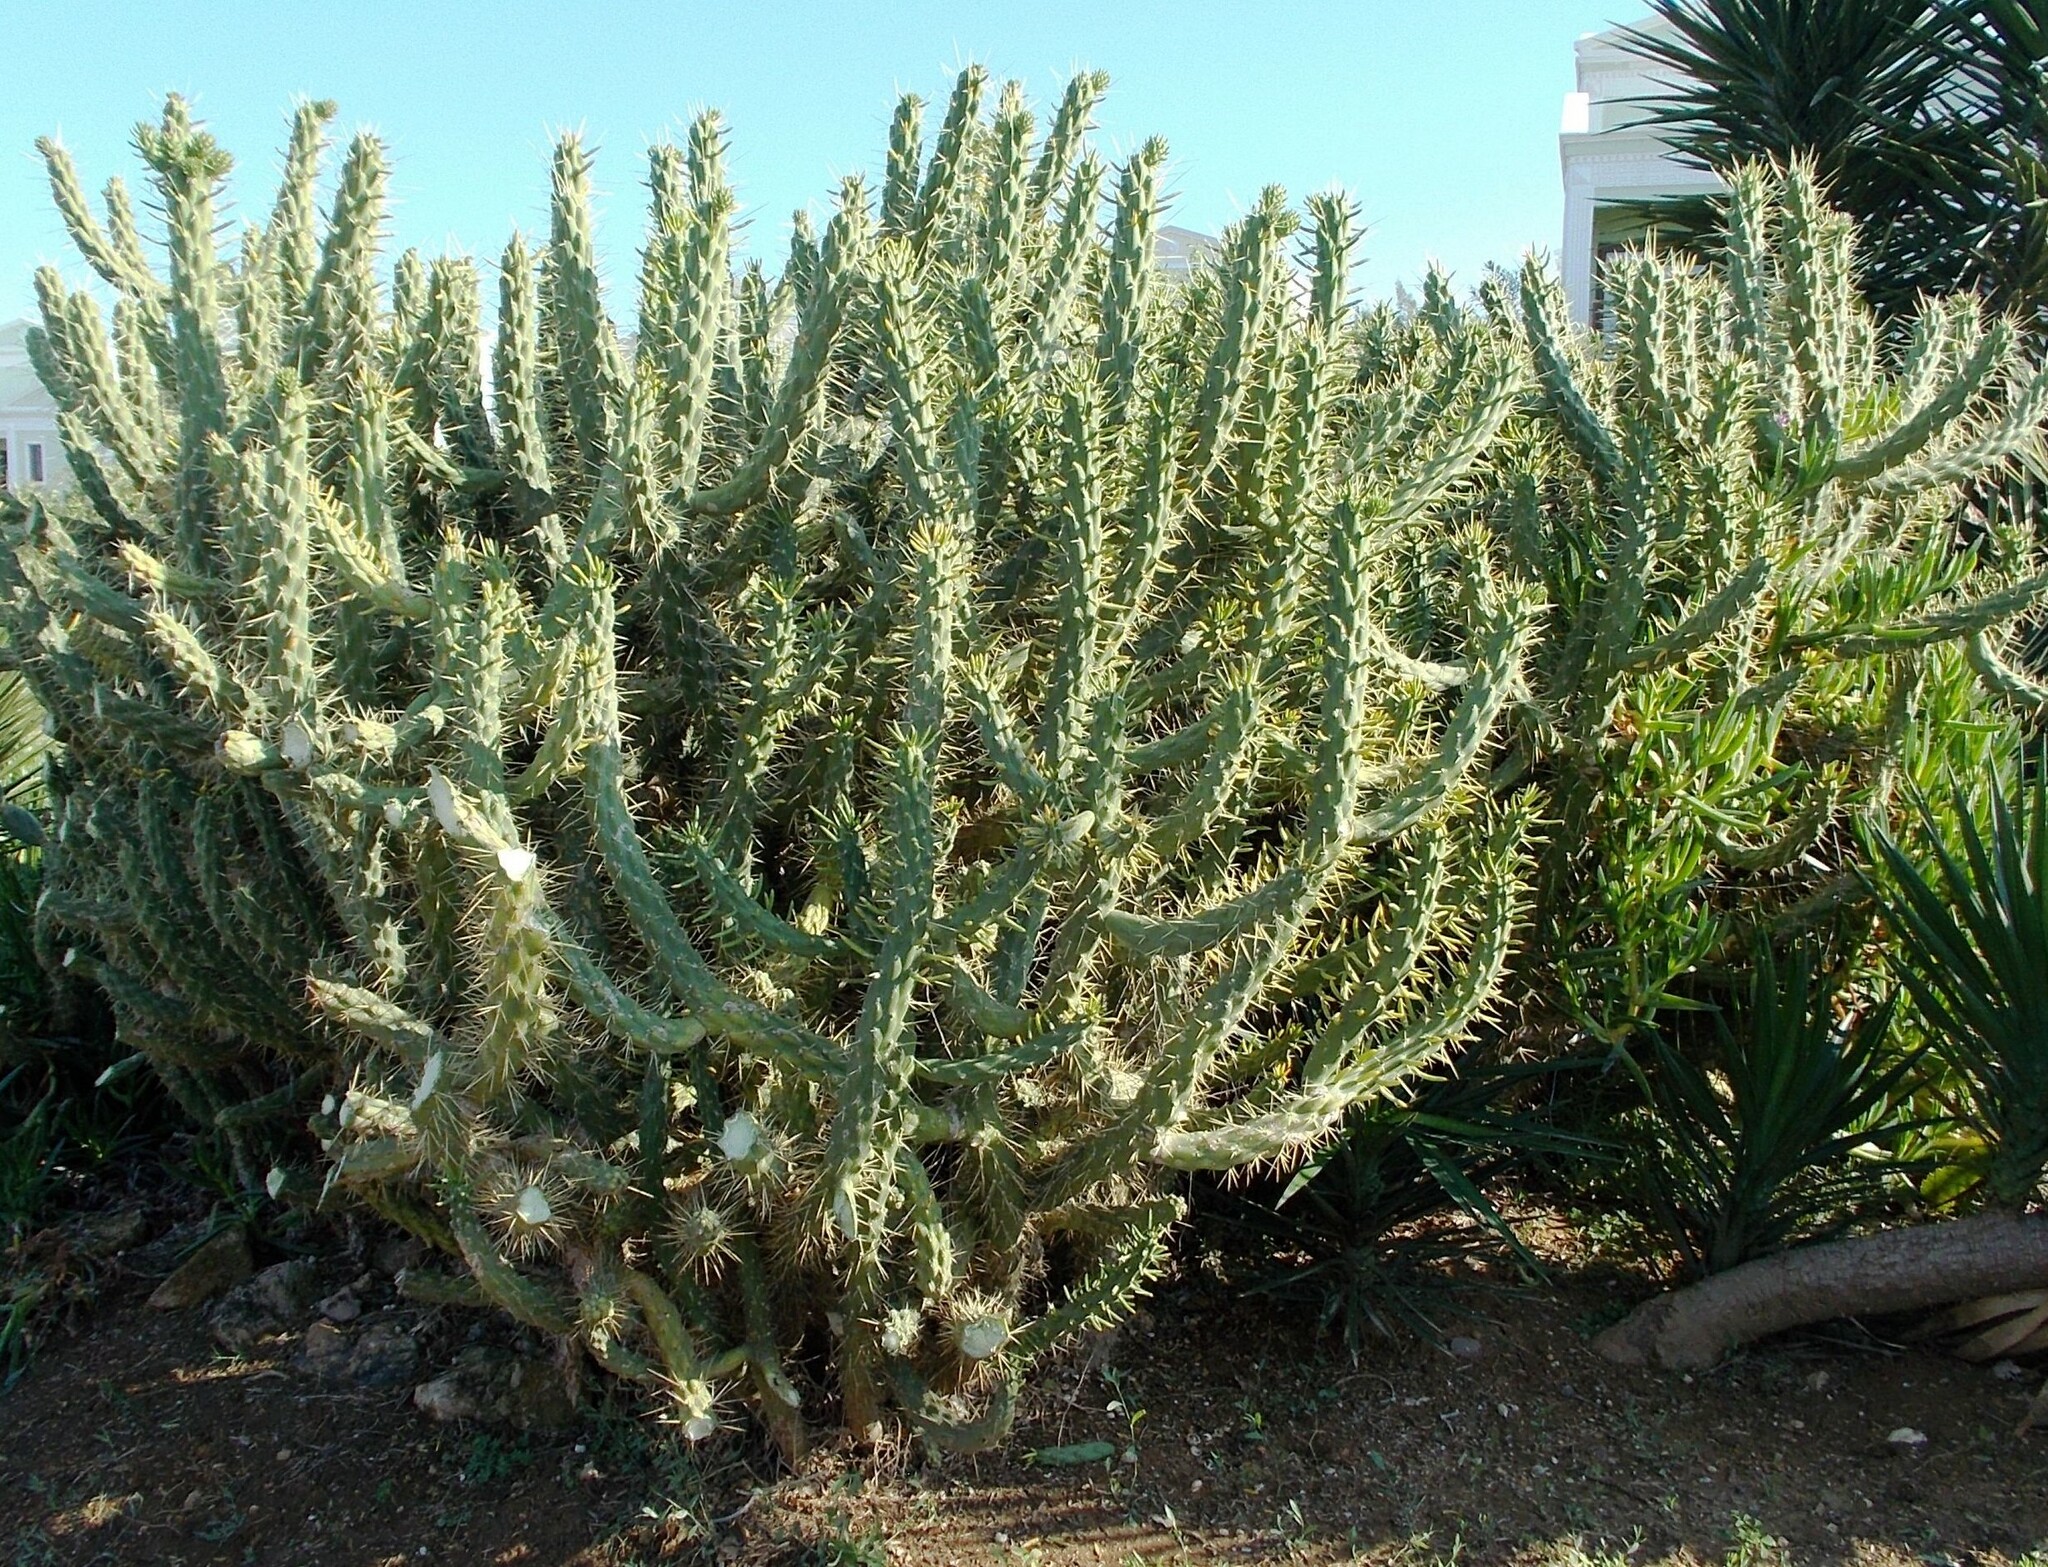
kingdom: Plantae
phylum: Tracheophyta
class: Magnoliopsida
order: Caryophyllales
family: Cactaceae
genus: Austrocylindropuntia
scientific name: Austrocylindropuntia subulata
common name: Eve's needle cactus
